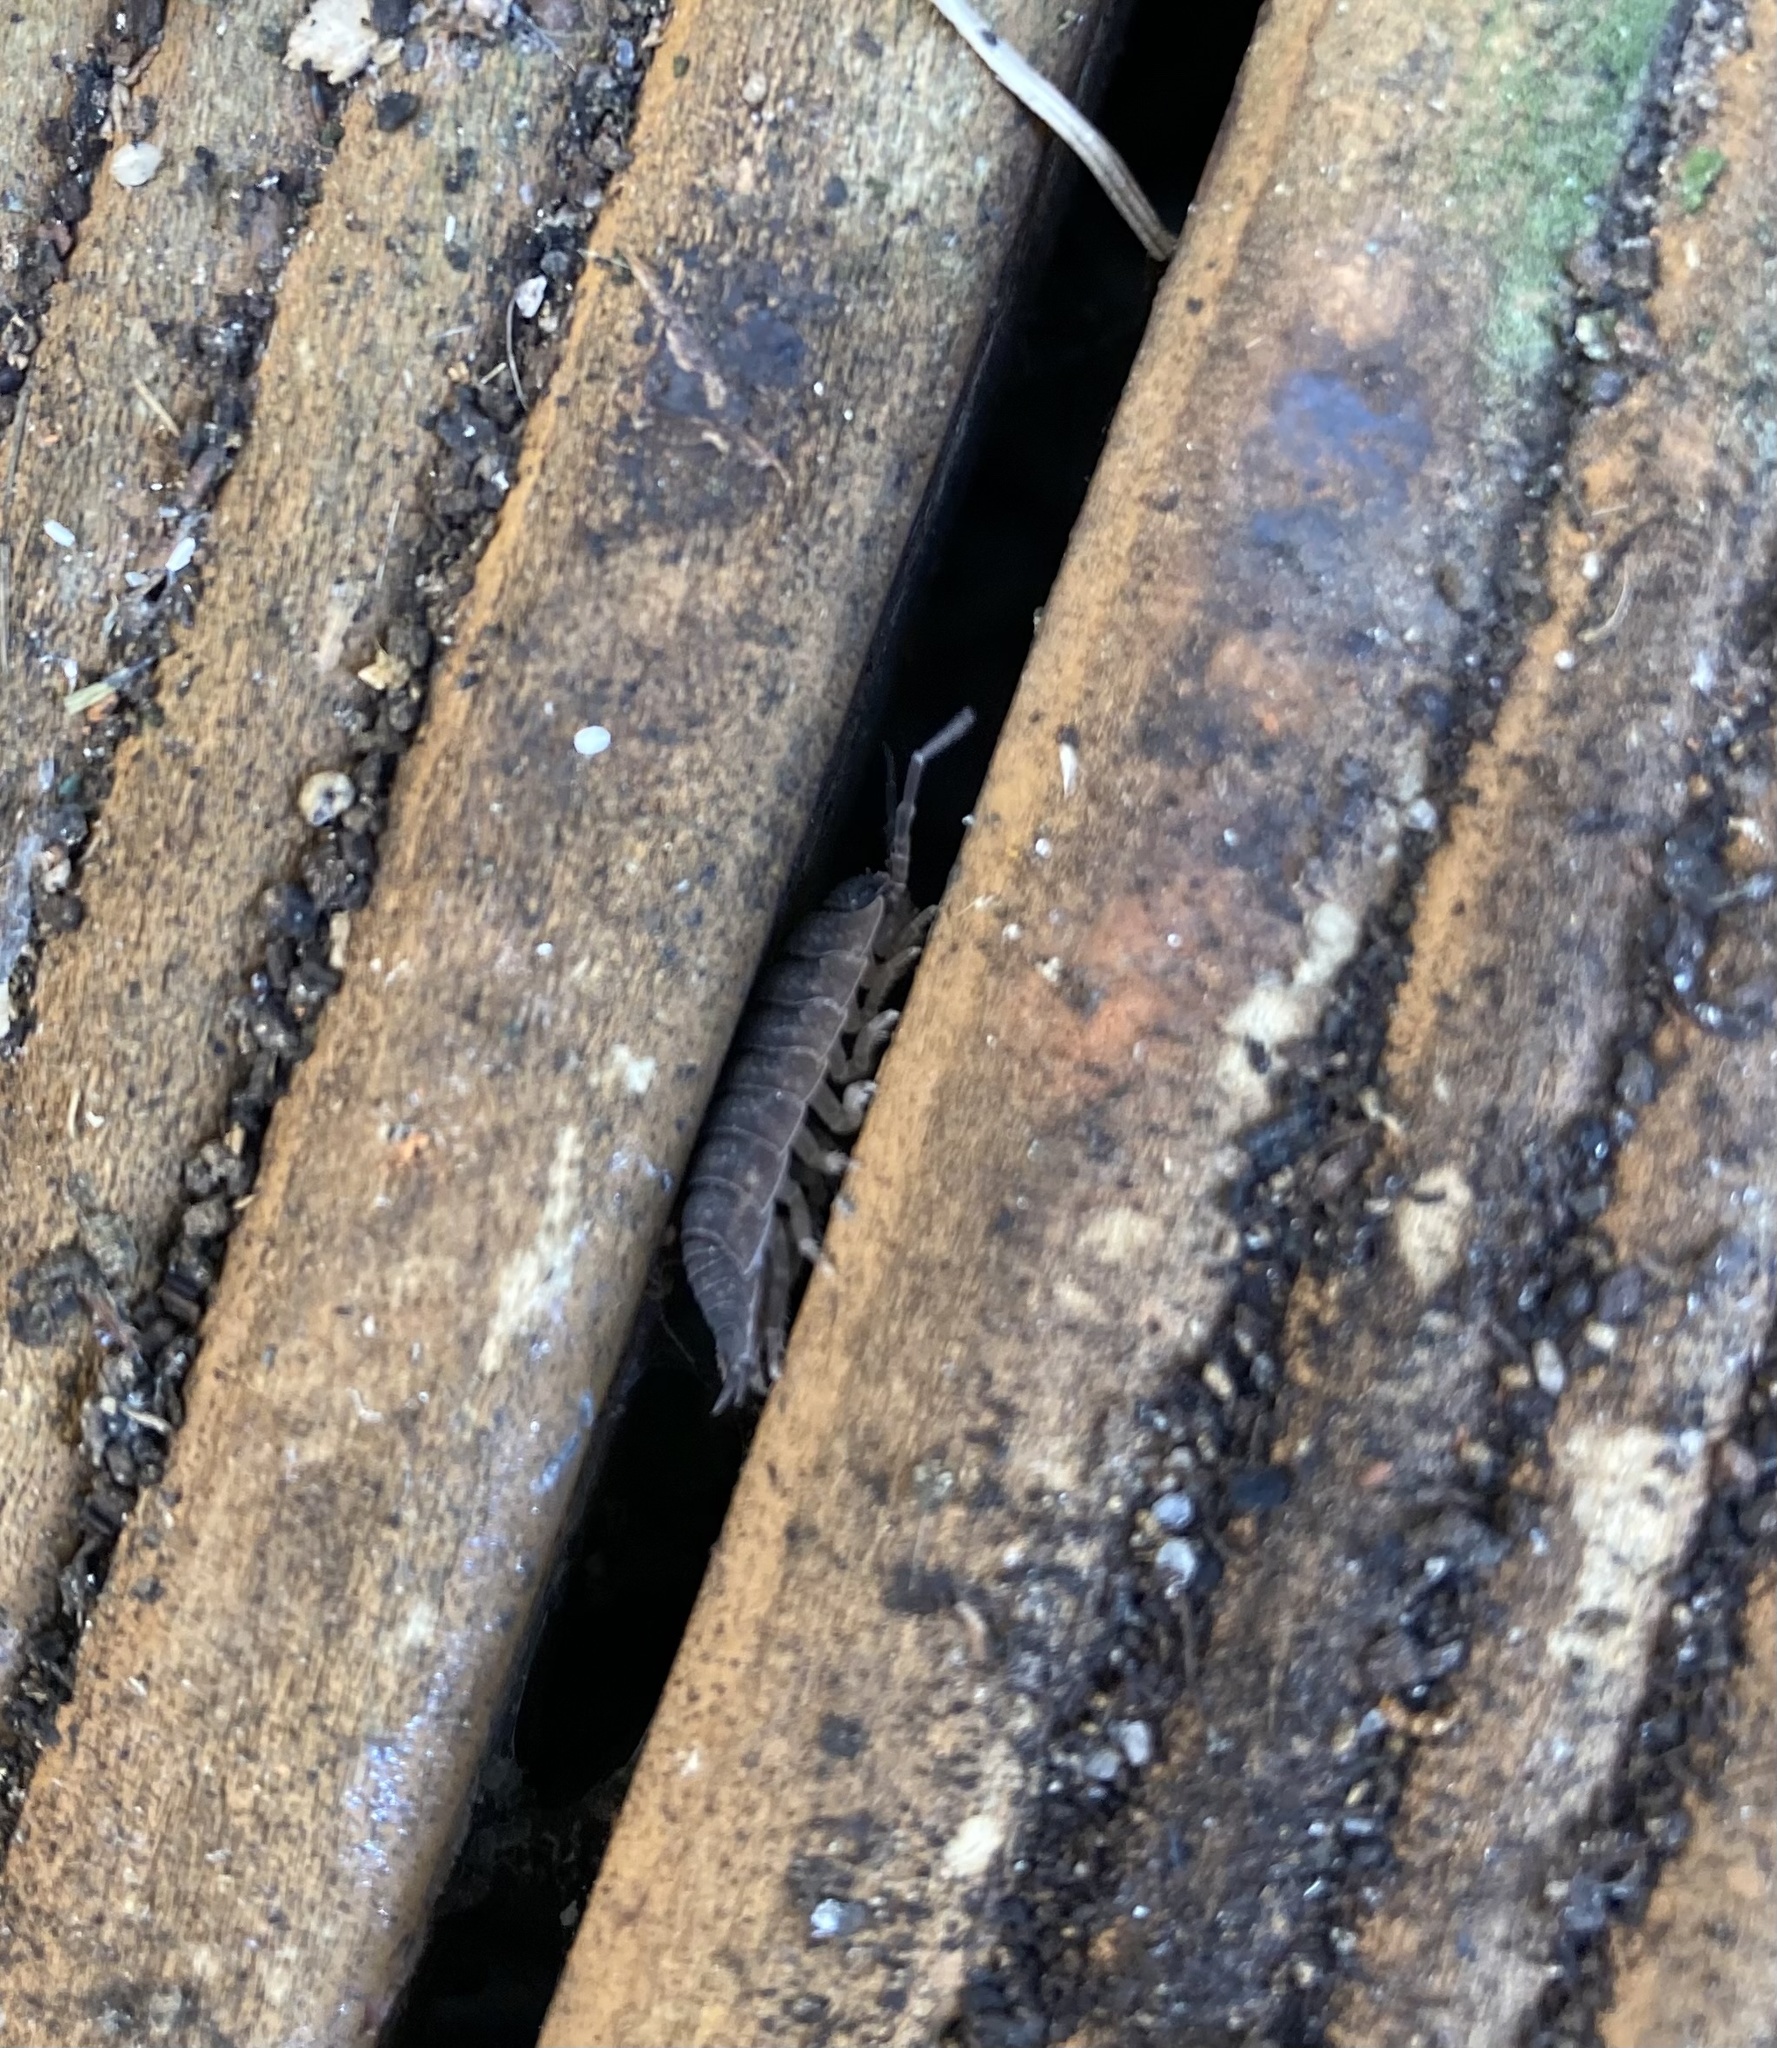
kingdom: Animalia
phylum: Arthropoda
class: Malacostraca
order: Isopoda
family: Porcellionidae
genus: Porcellio
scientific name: Porcellio scaber
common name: Common rough woodlouse
